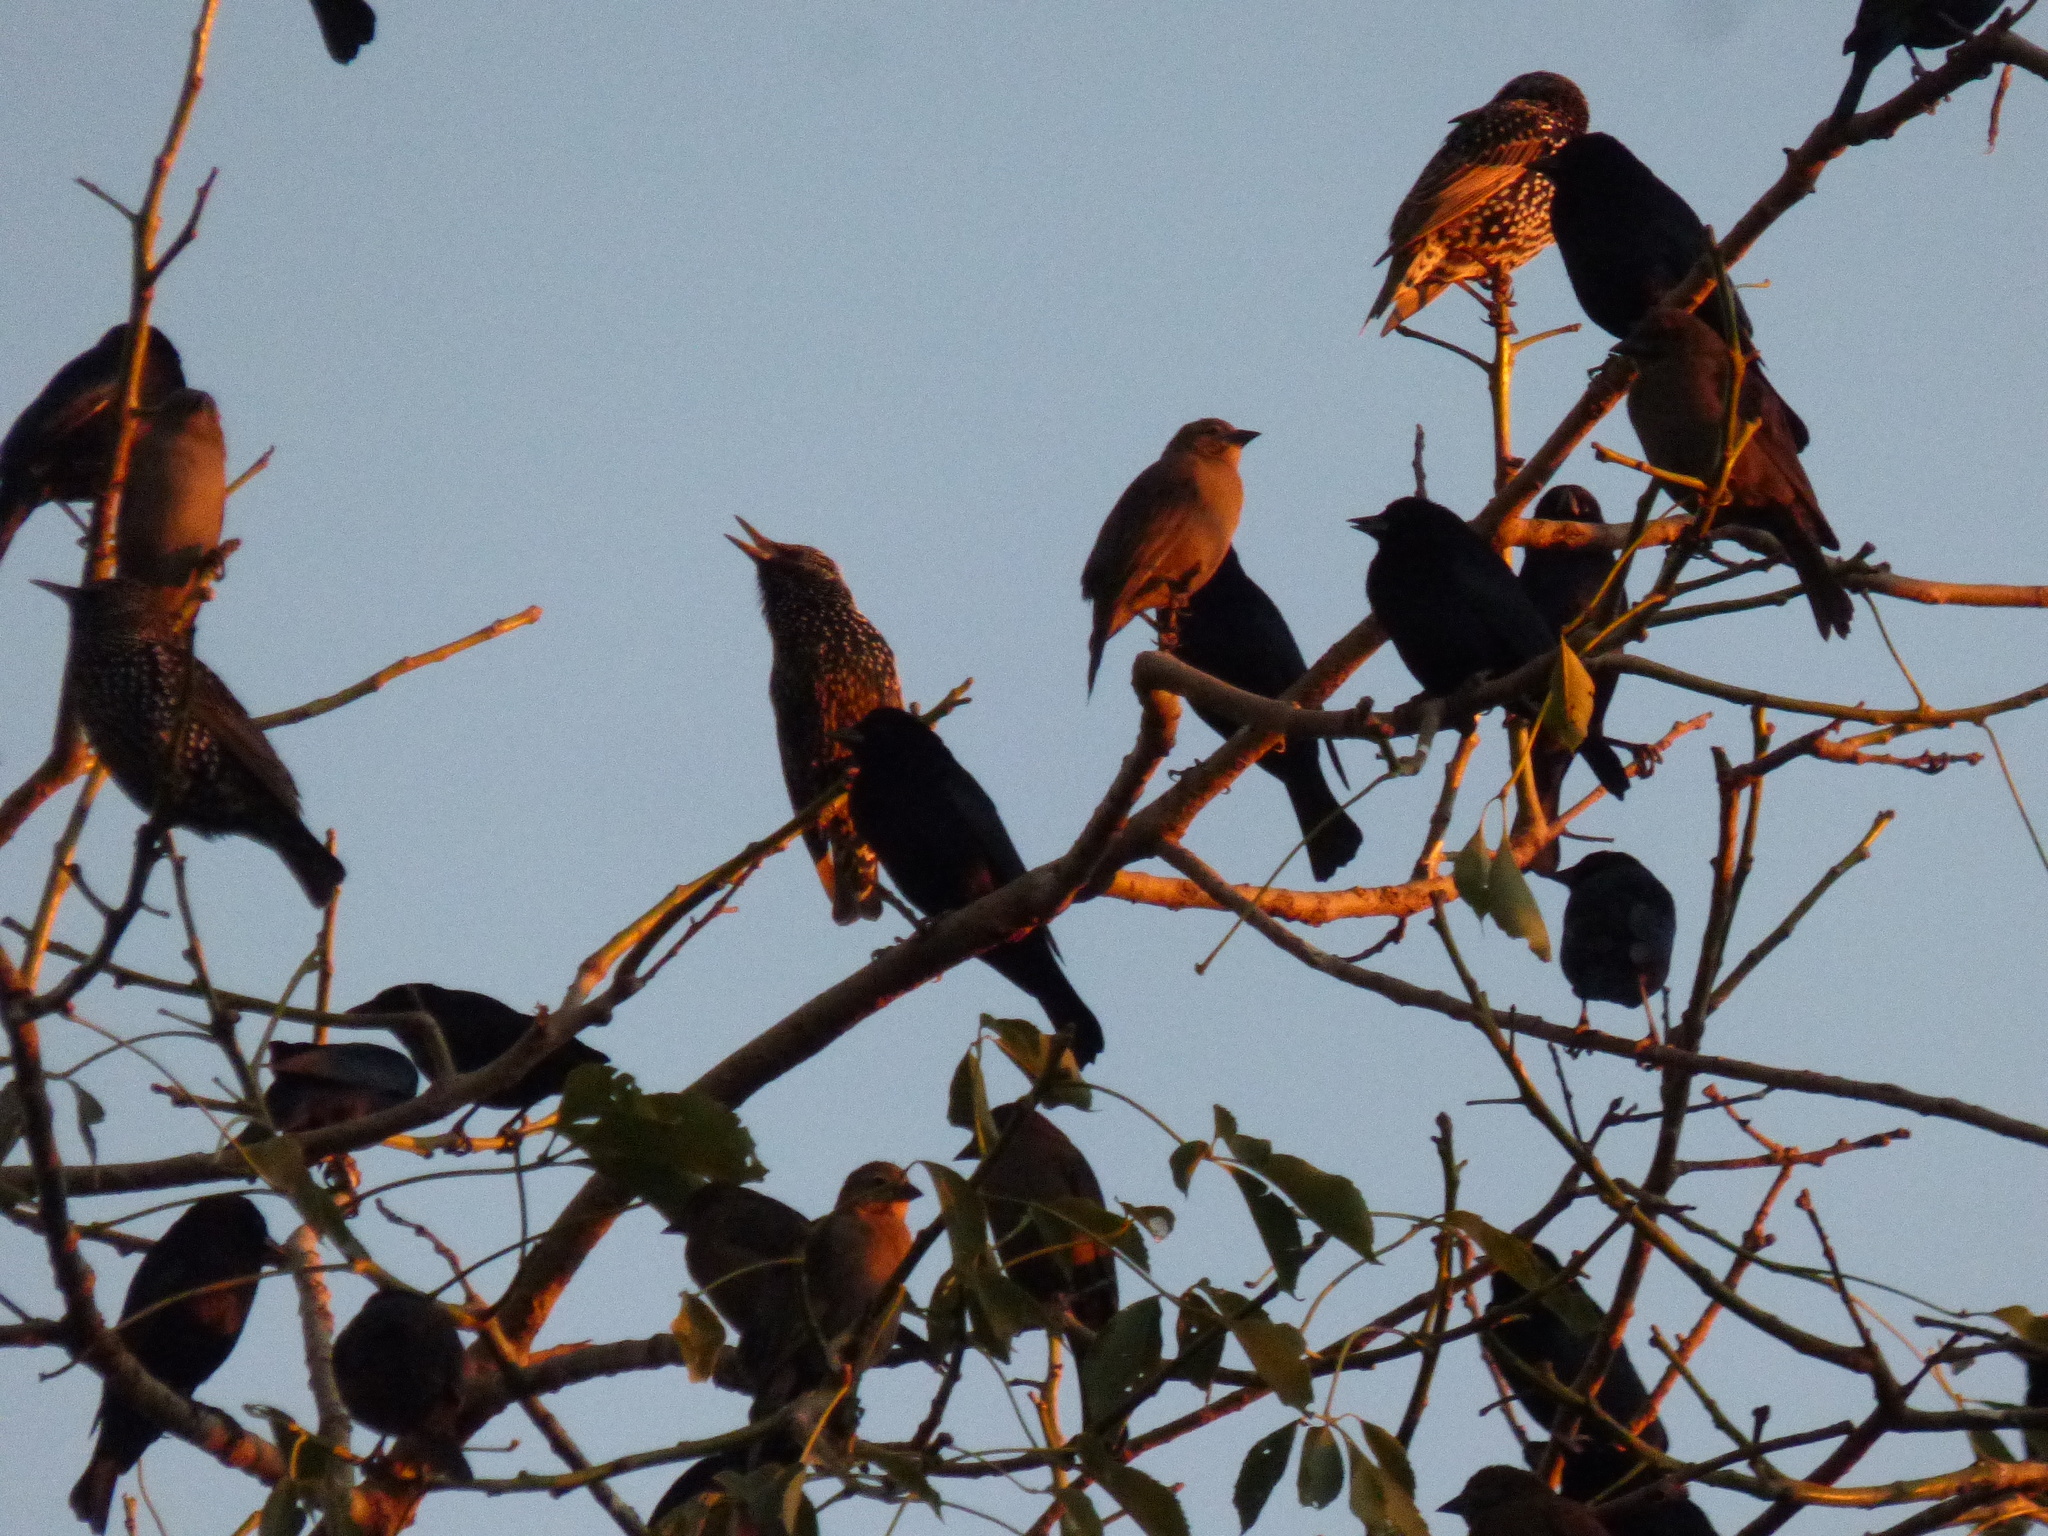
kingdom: Animalia
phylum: Chordata
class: Aves
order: Passeriformes
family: Sturnidae
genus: Sturnus
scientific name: Sturnus vulgaris
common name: Common starling
